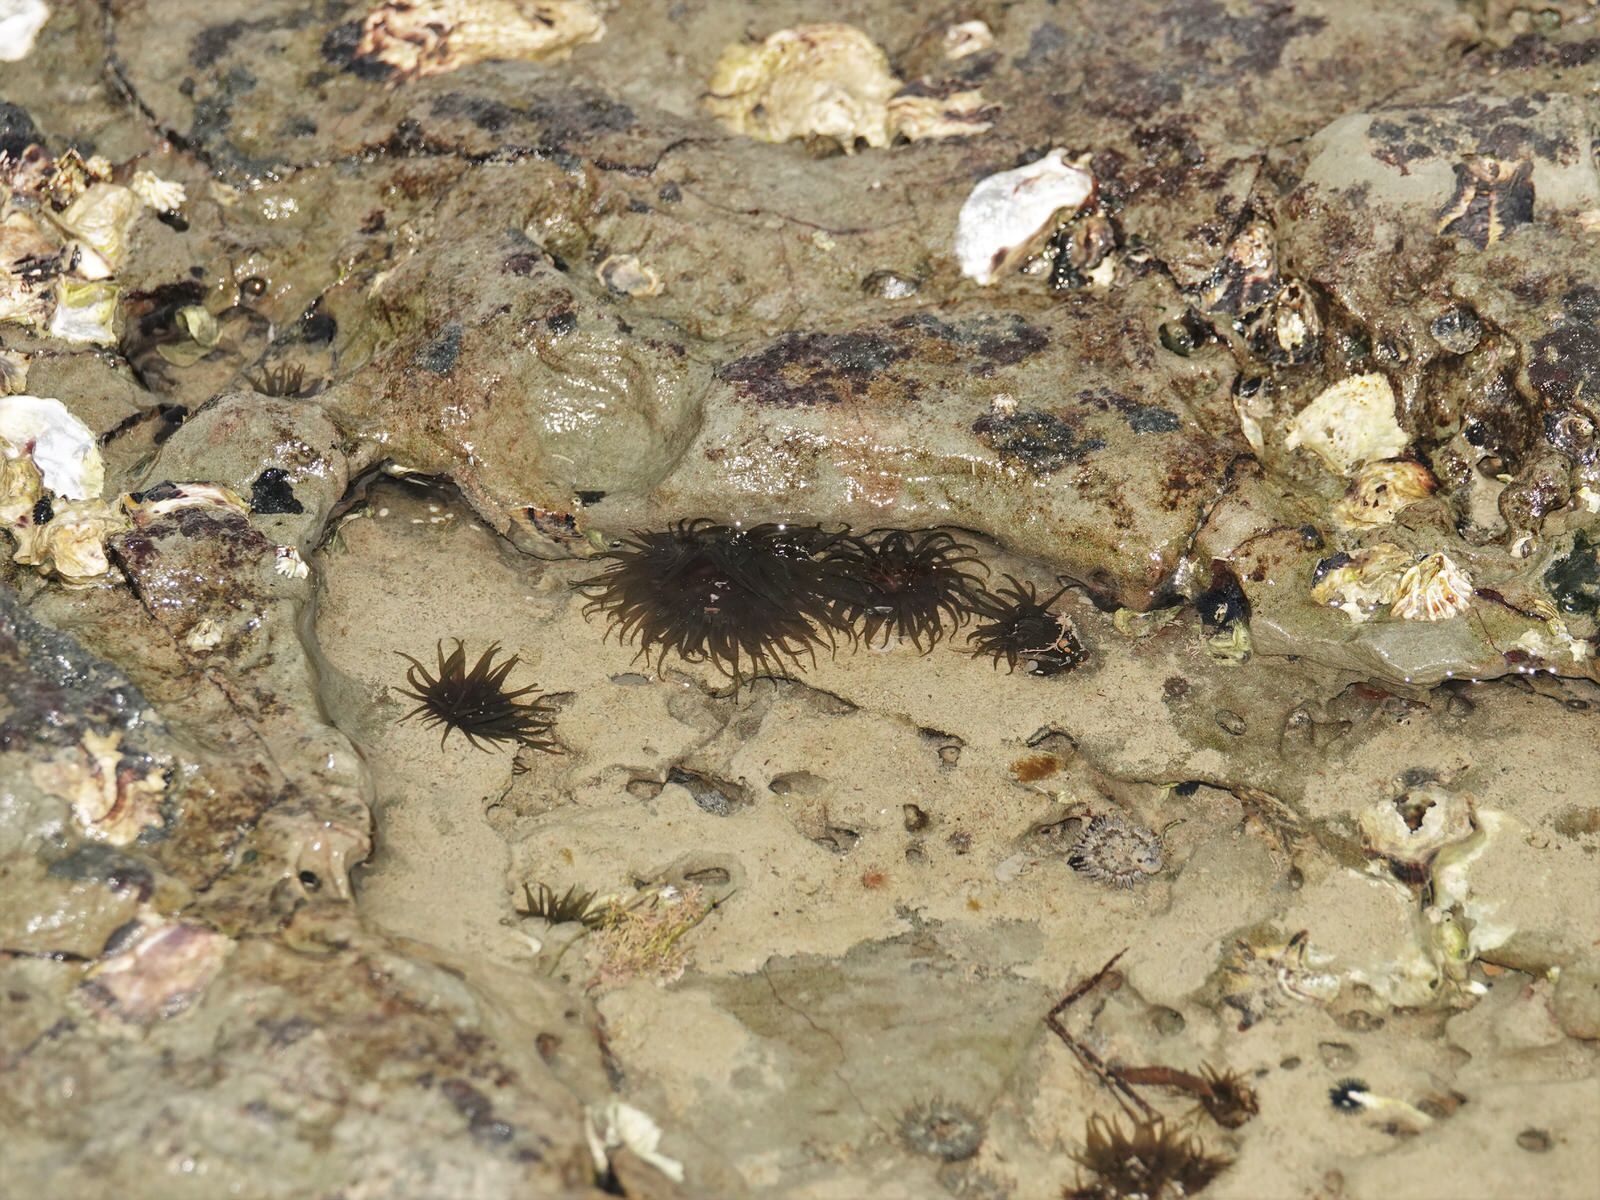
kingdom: Animalia
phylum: Cnidaria
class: Anthozoa
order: Actiniaria
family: Actiniidae
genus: Isactinia
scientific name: Isactinia olivacea
